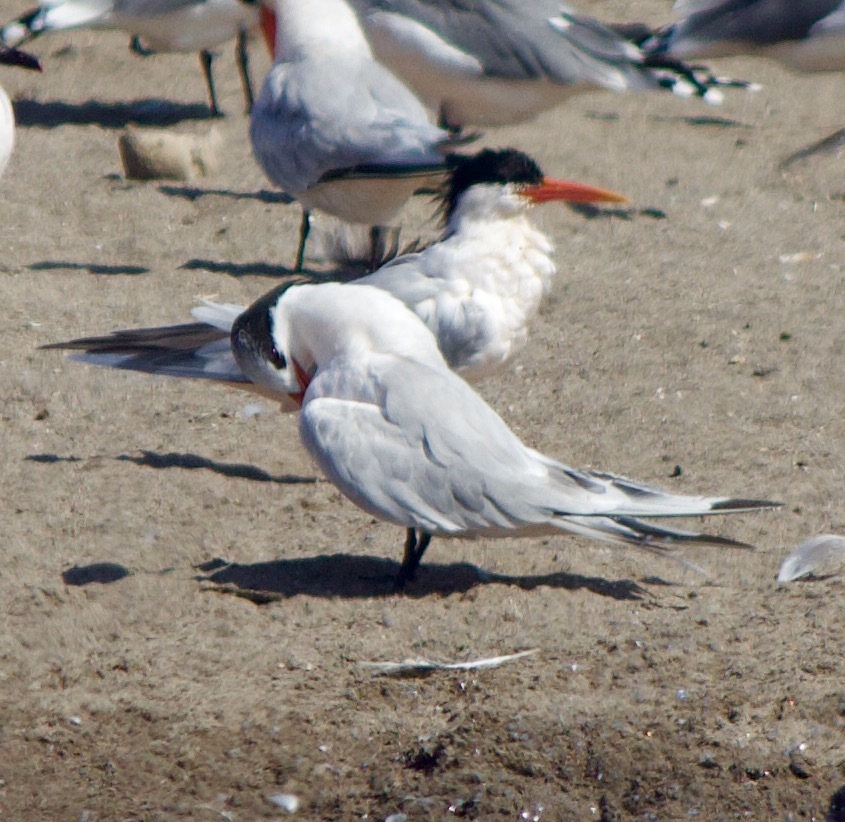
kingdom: Animalia
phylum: Chordata
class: Aves
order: Charadriiformes
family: Laridae
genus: Thalasseus
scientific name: Thalasseus elegans
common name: Elegant tern
